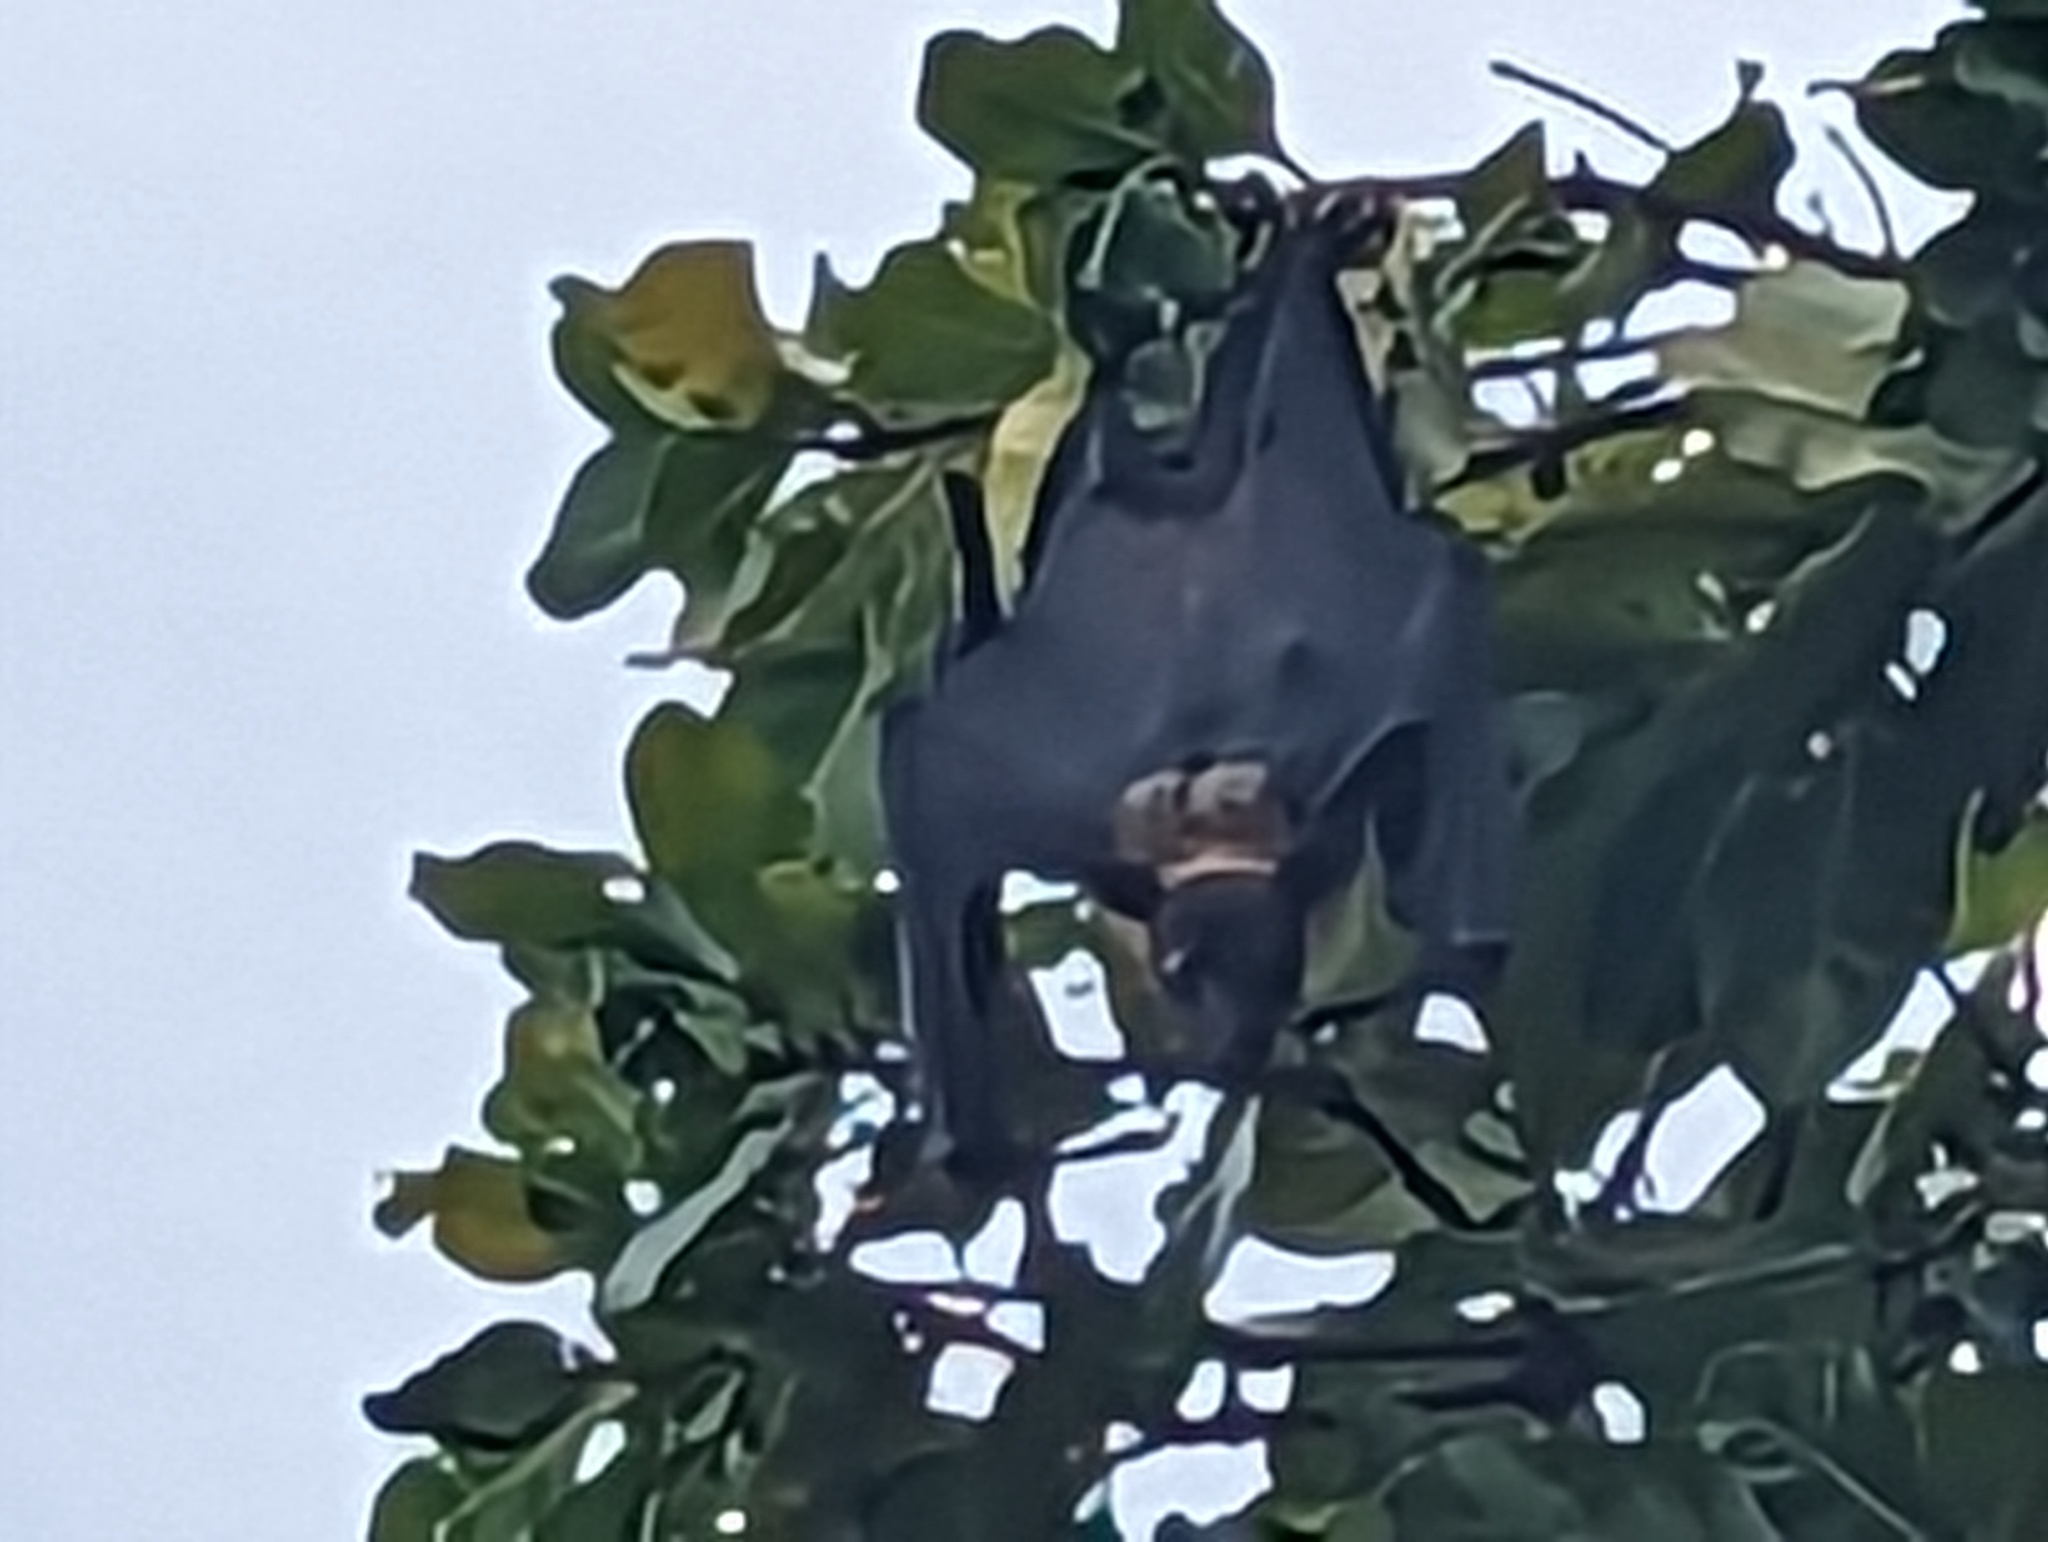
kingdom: Animalia
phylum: Chordata
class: Mammalia
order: Chiroptera
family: Pteropodidae
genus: Pteropus
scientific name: Pteropus vampyrus
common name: Large flying fox
